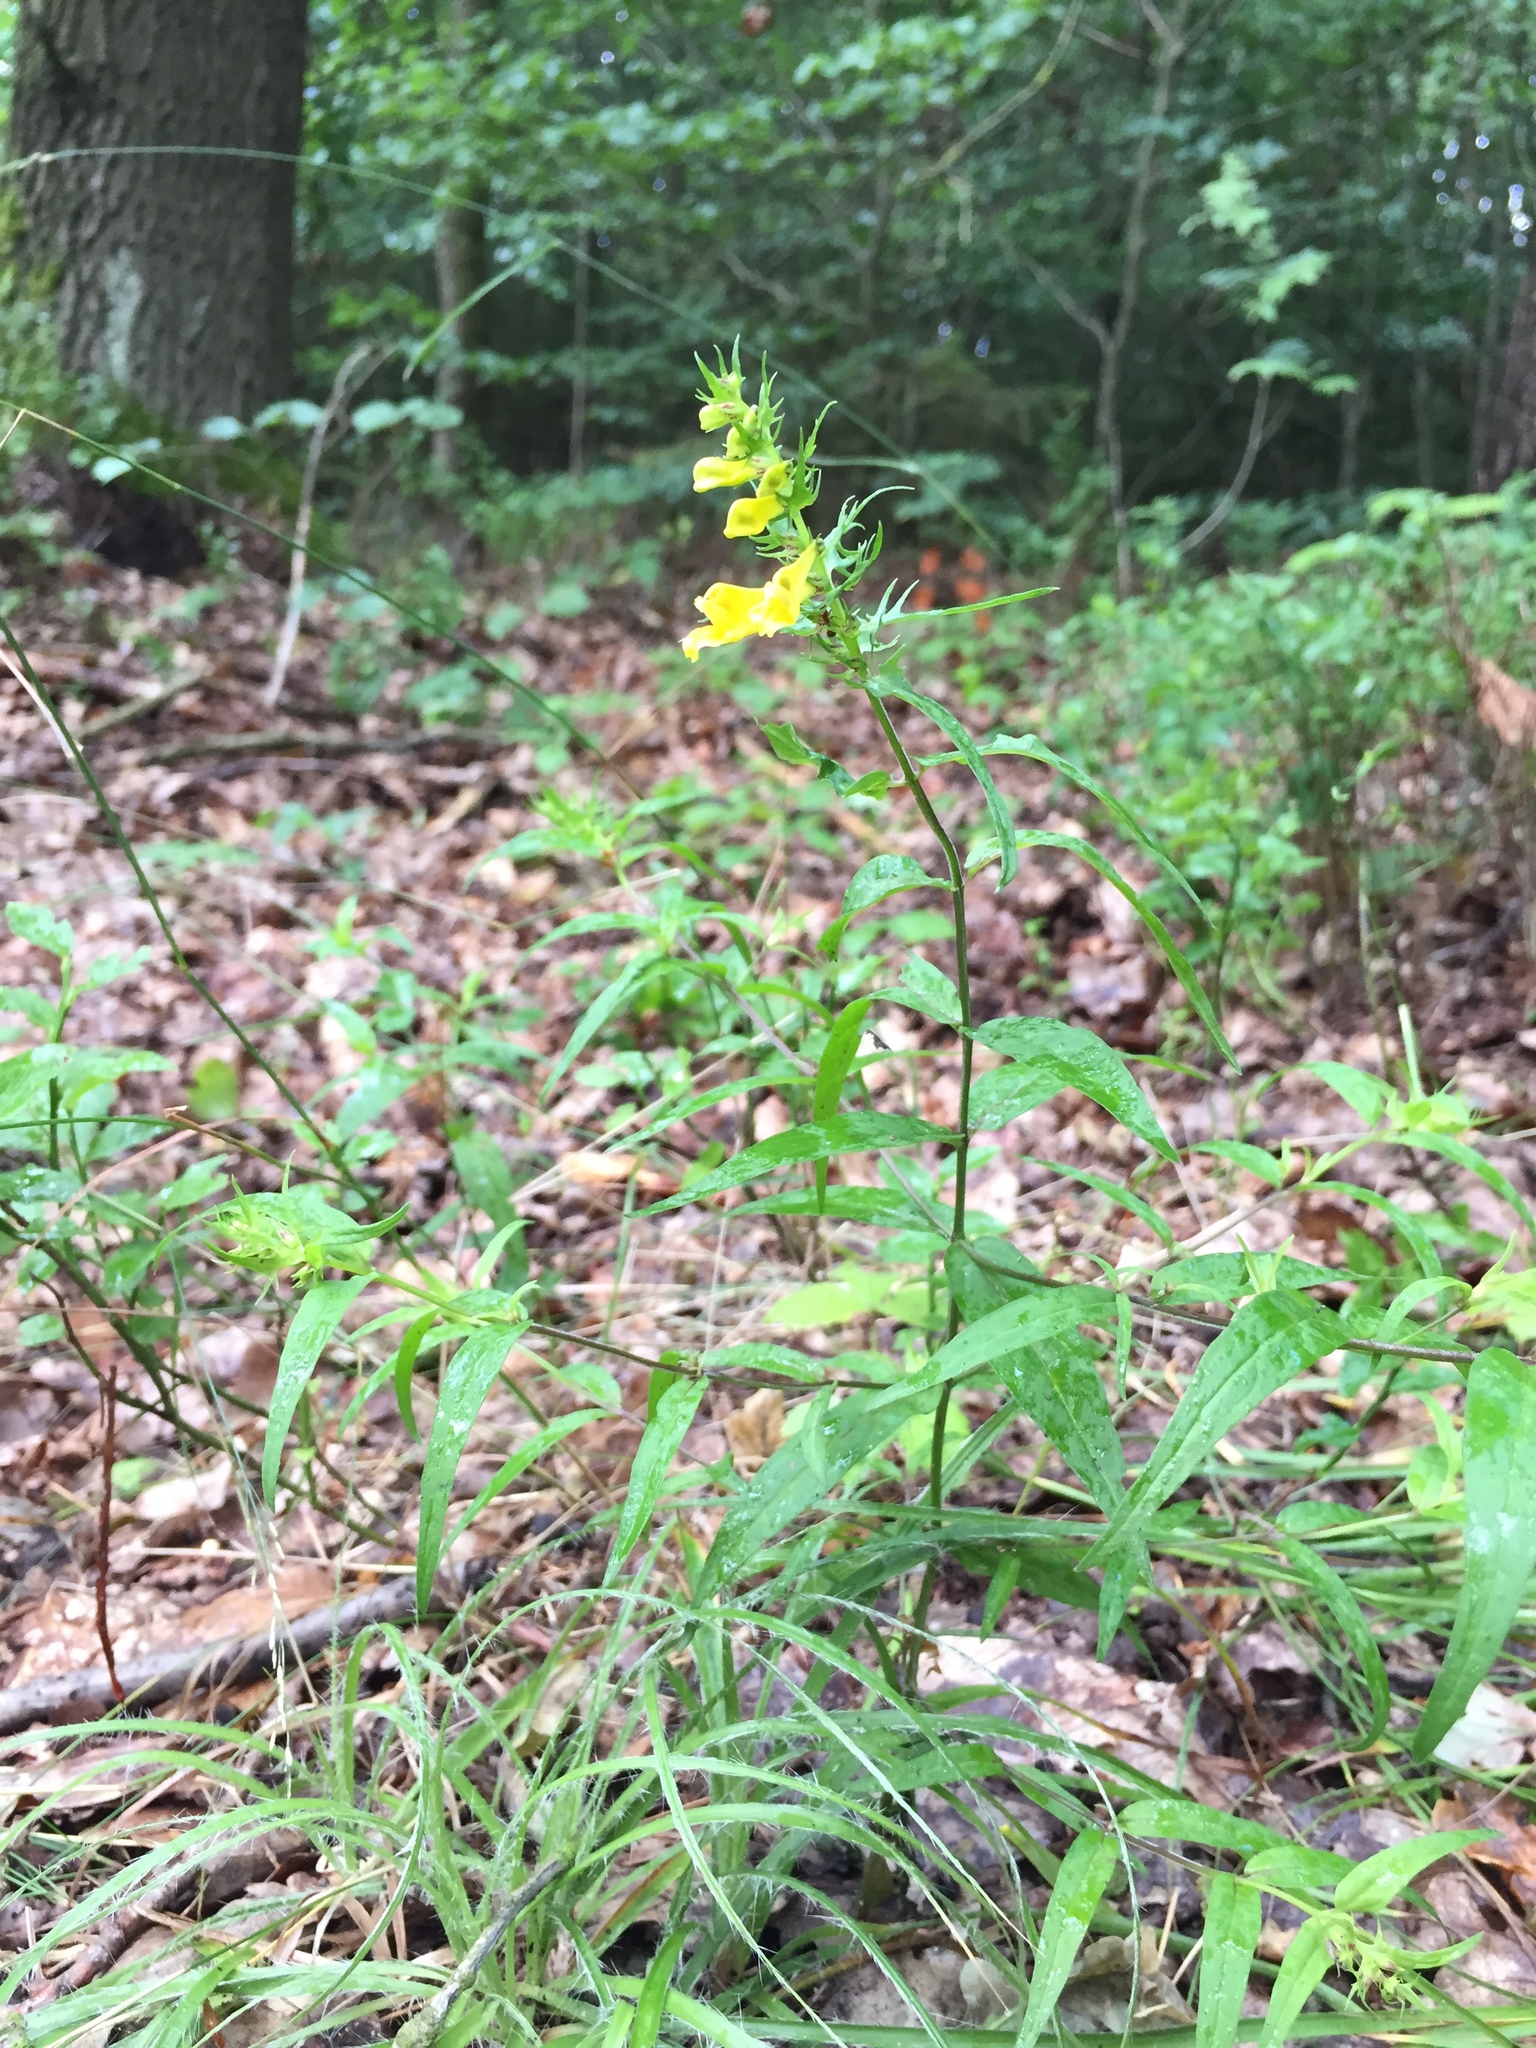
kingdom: Plantae
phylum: Tracheophyta
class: Magnoliopsida
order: Lamiales
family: Orobanchaceae
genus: Melampyrum
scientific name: Melampyrum pratense
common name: Common cow-wheat
